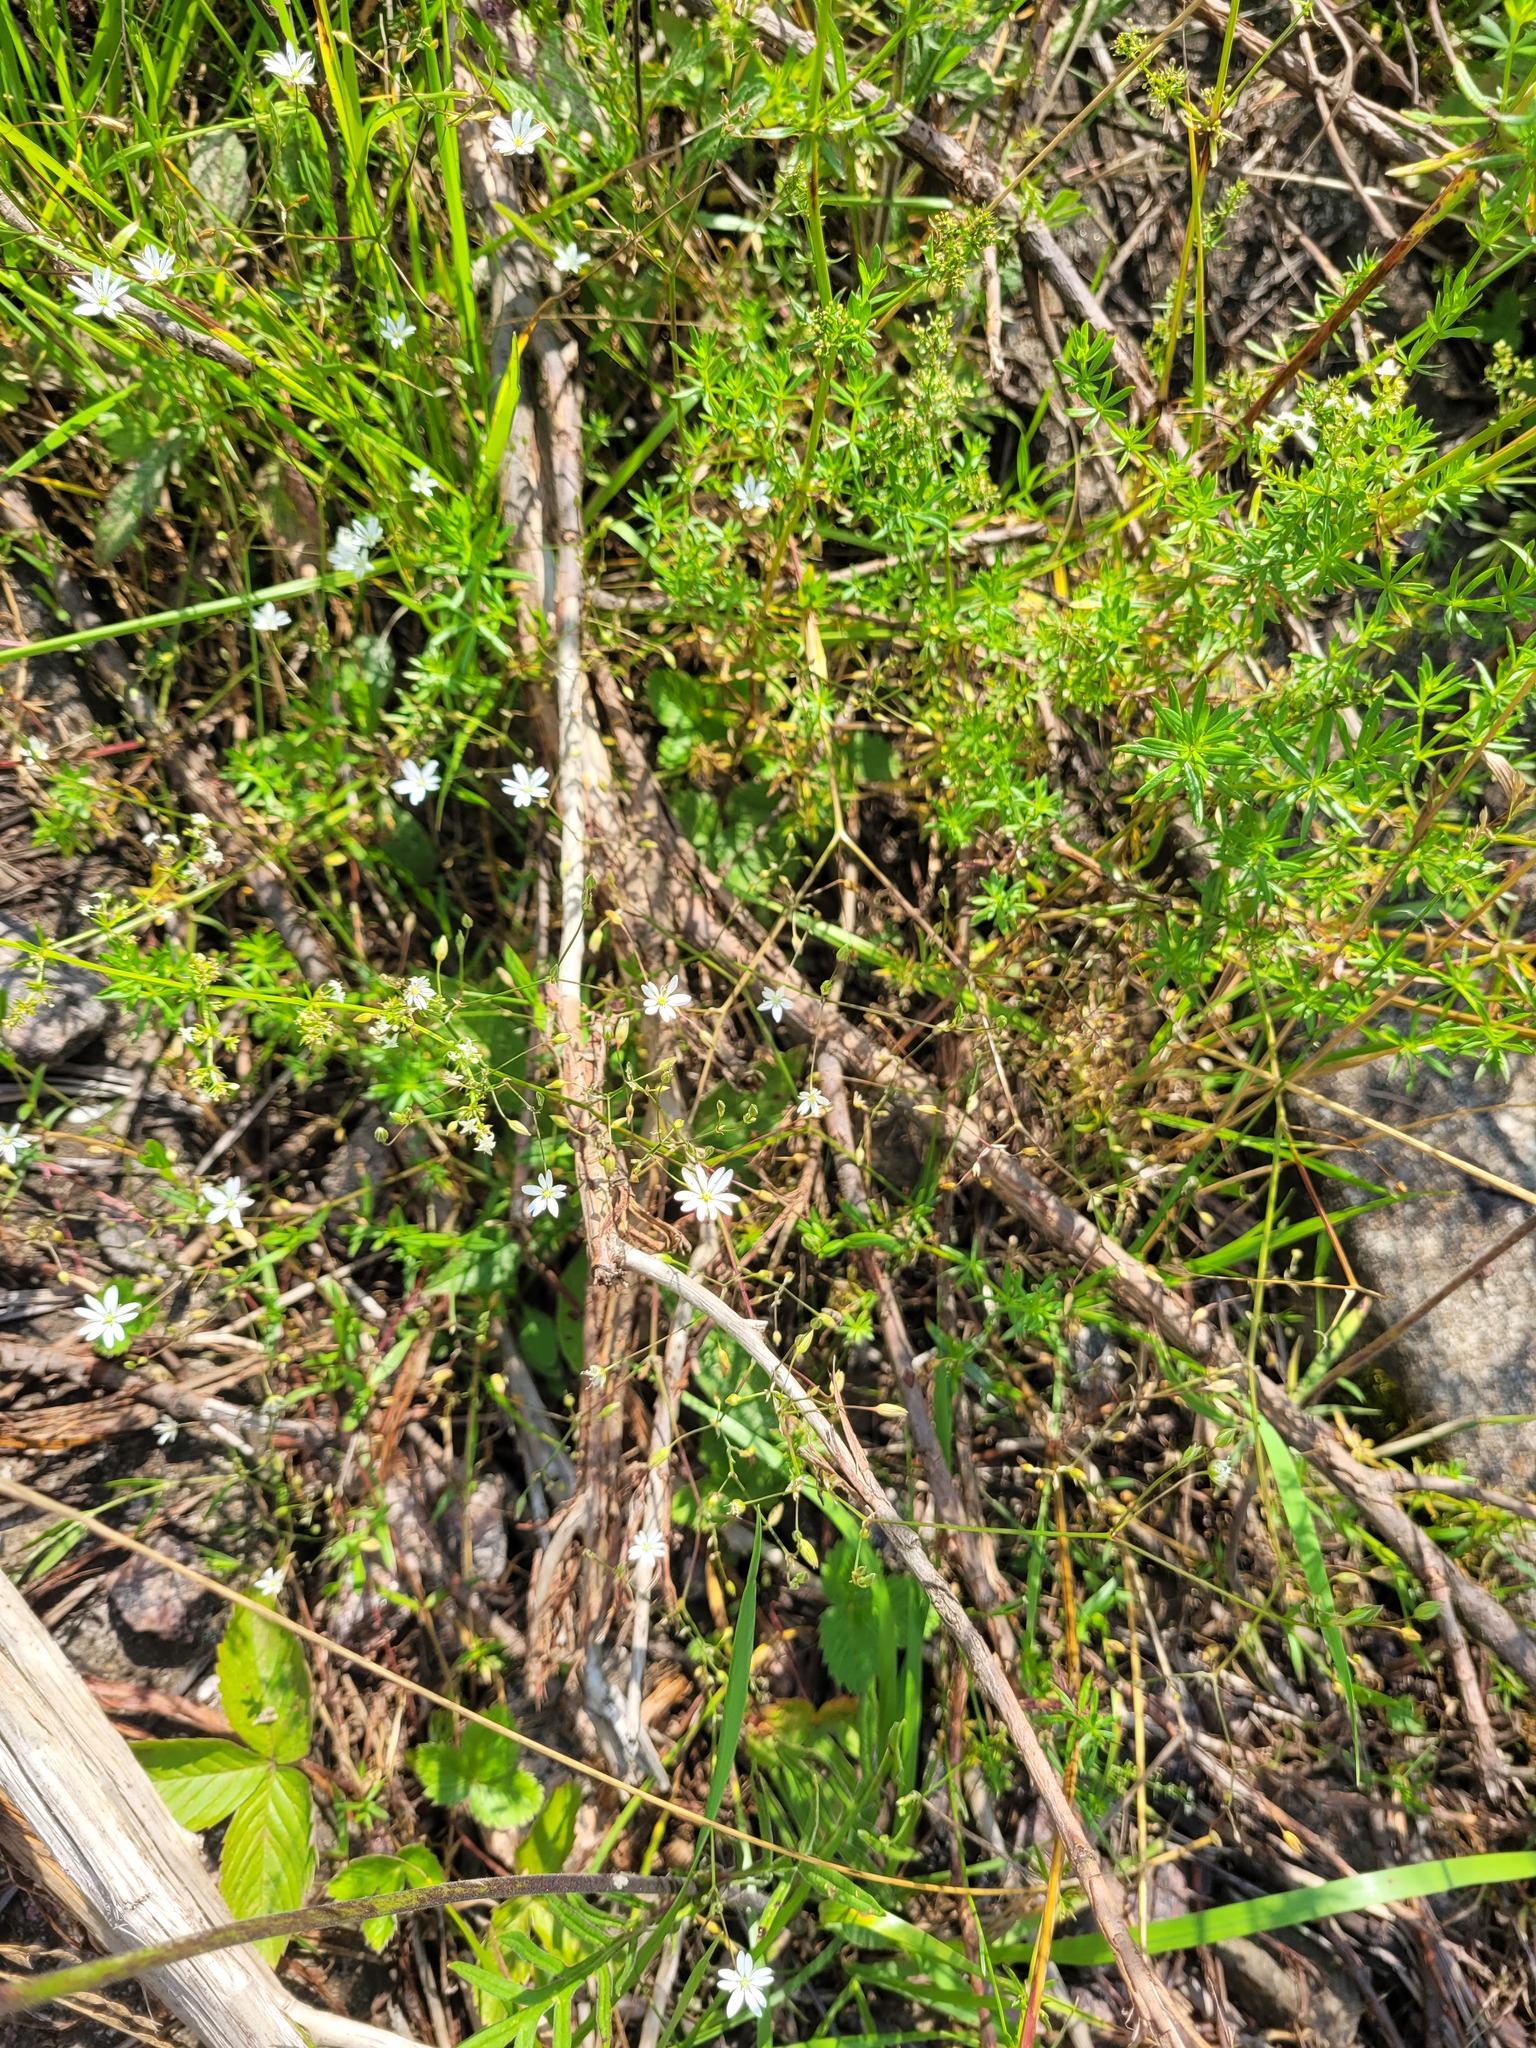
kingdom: Plantae
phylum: Tracheophyta
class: Magnoliopsida
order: Caryophyllales
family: Caryophyllaceae
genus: Stellaria
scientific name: Stellaria graminea
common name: Grass-like starwort
